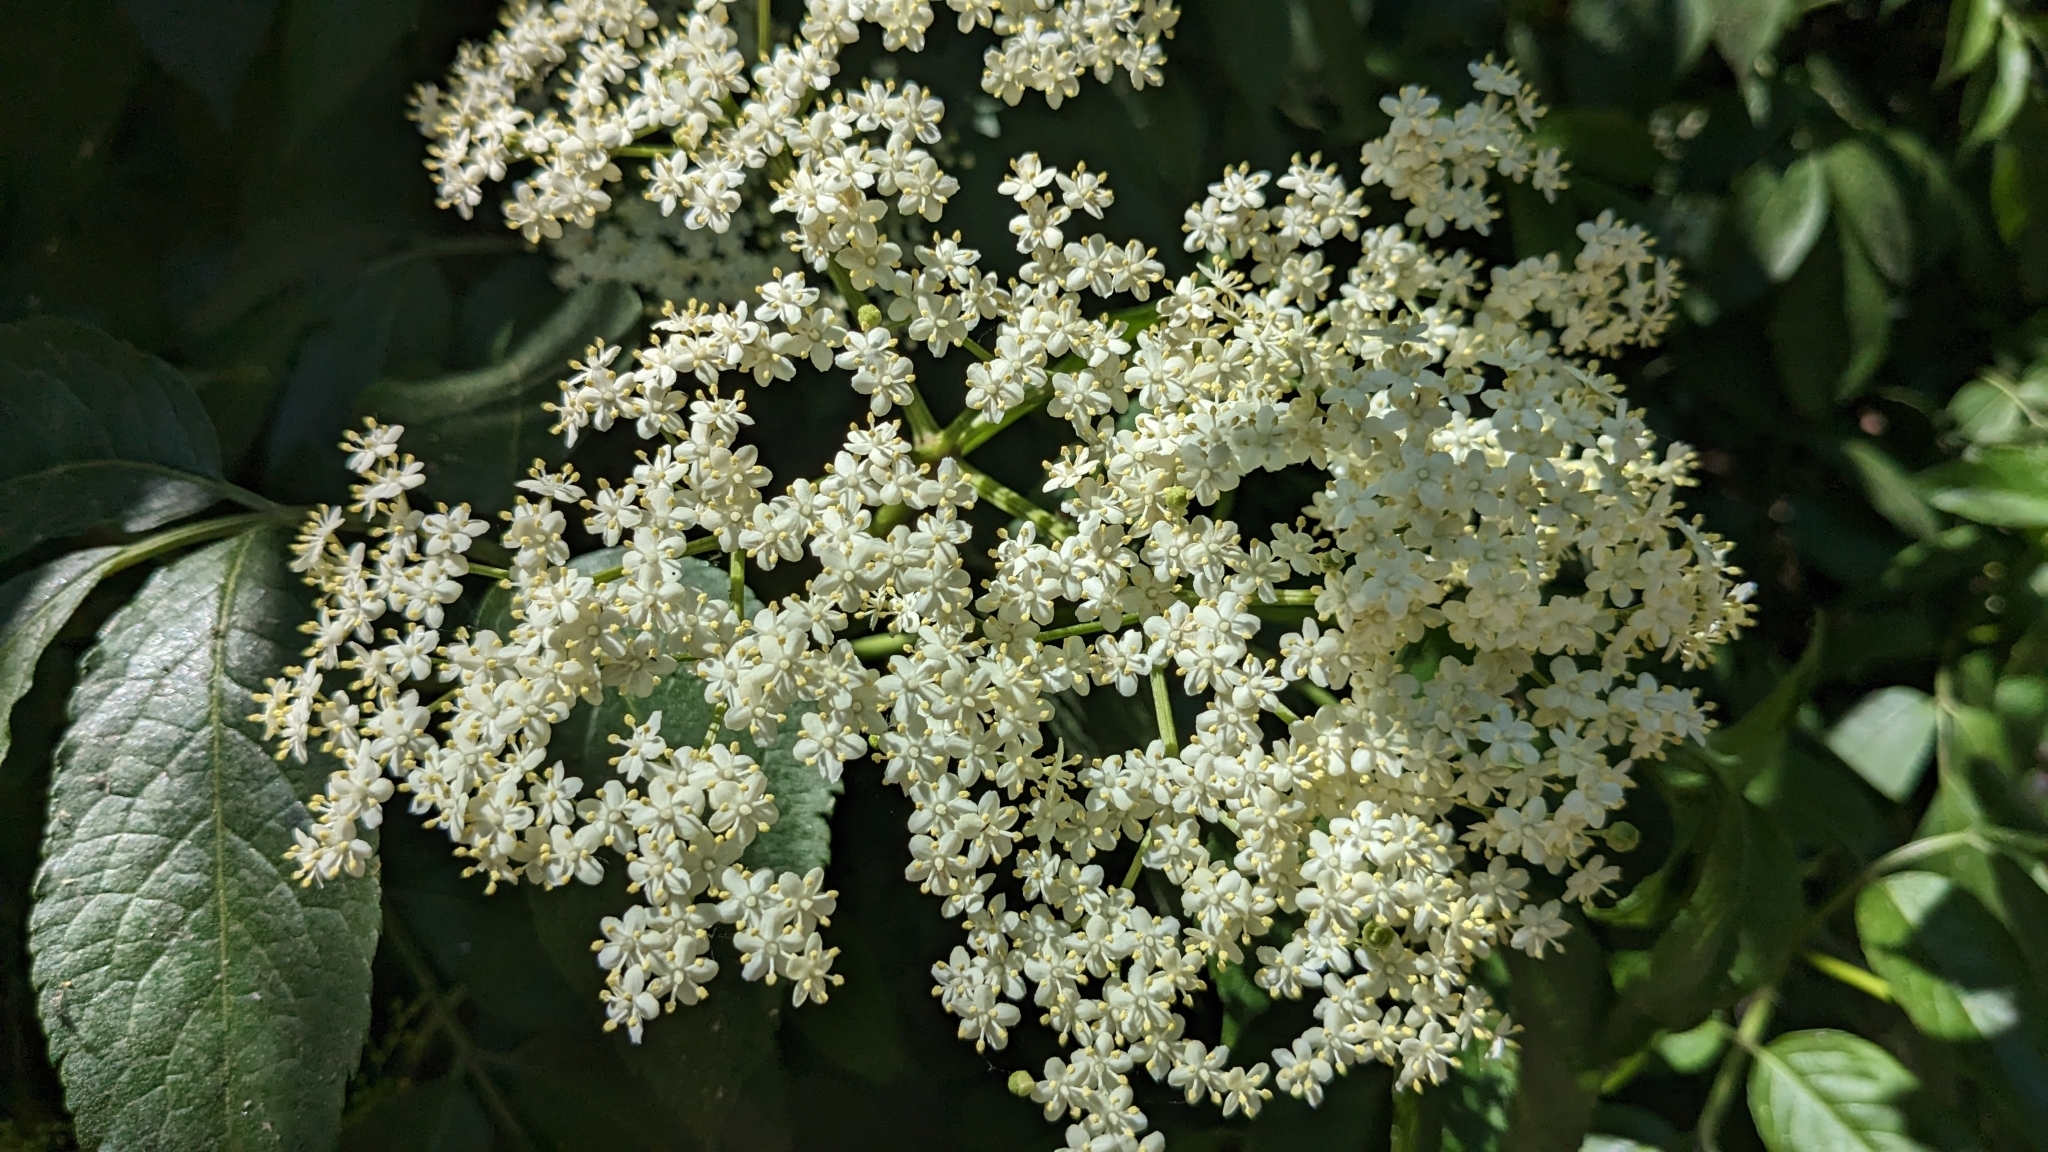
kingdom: Plantae
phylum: Tracheophyta
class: Magnoliopsida
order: Dipsacales
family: Viburnaceae
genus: Sambucus
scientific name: Sambucus nigra
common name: Elder
